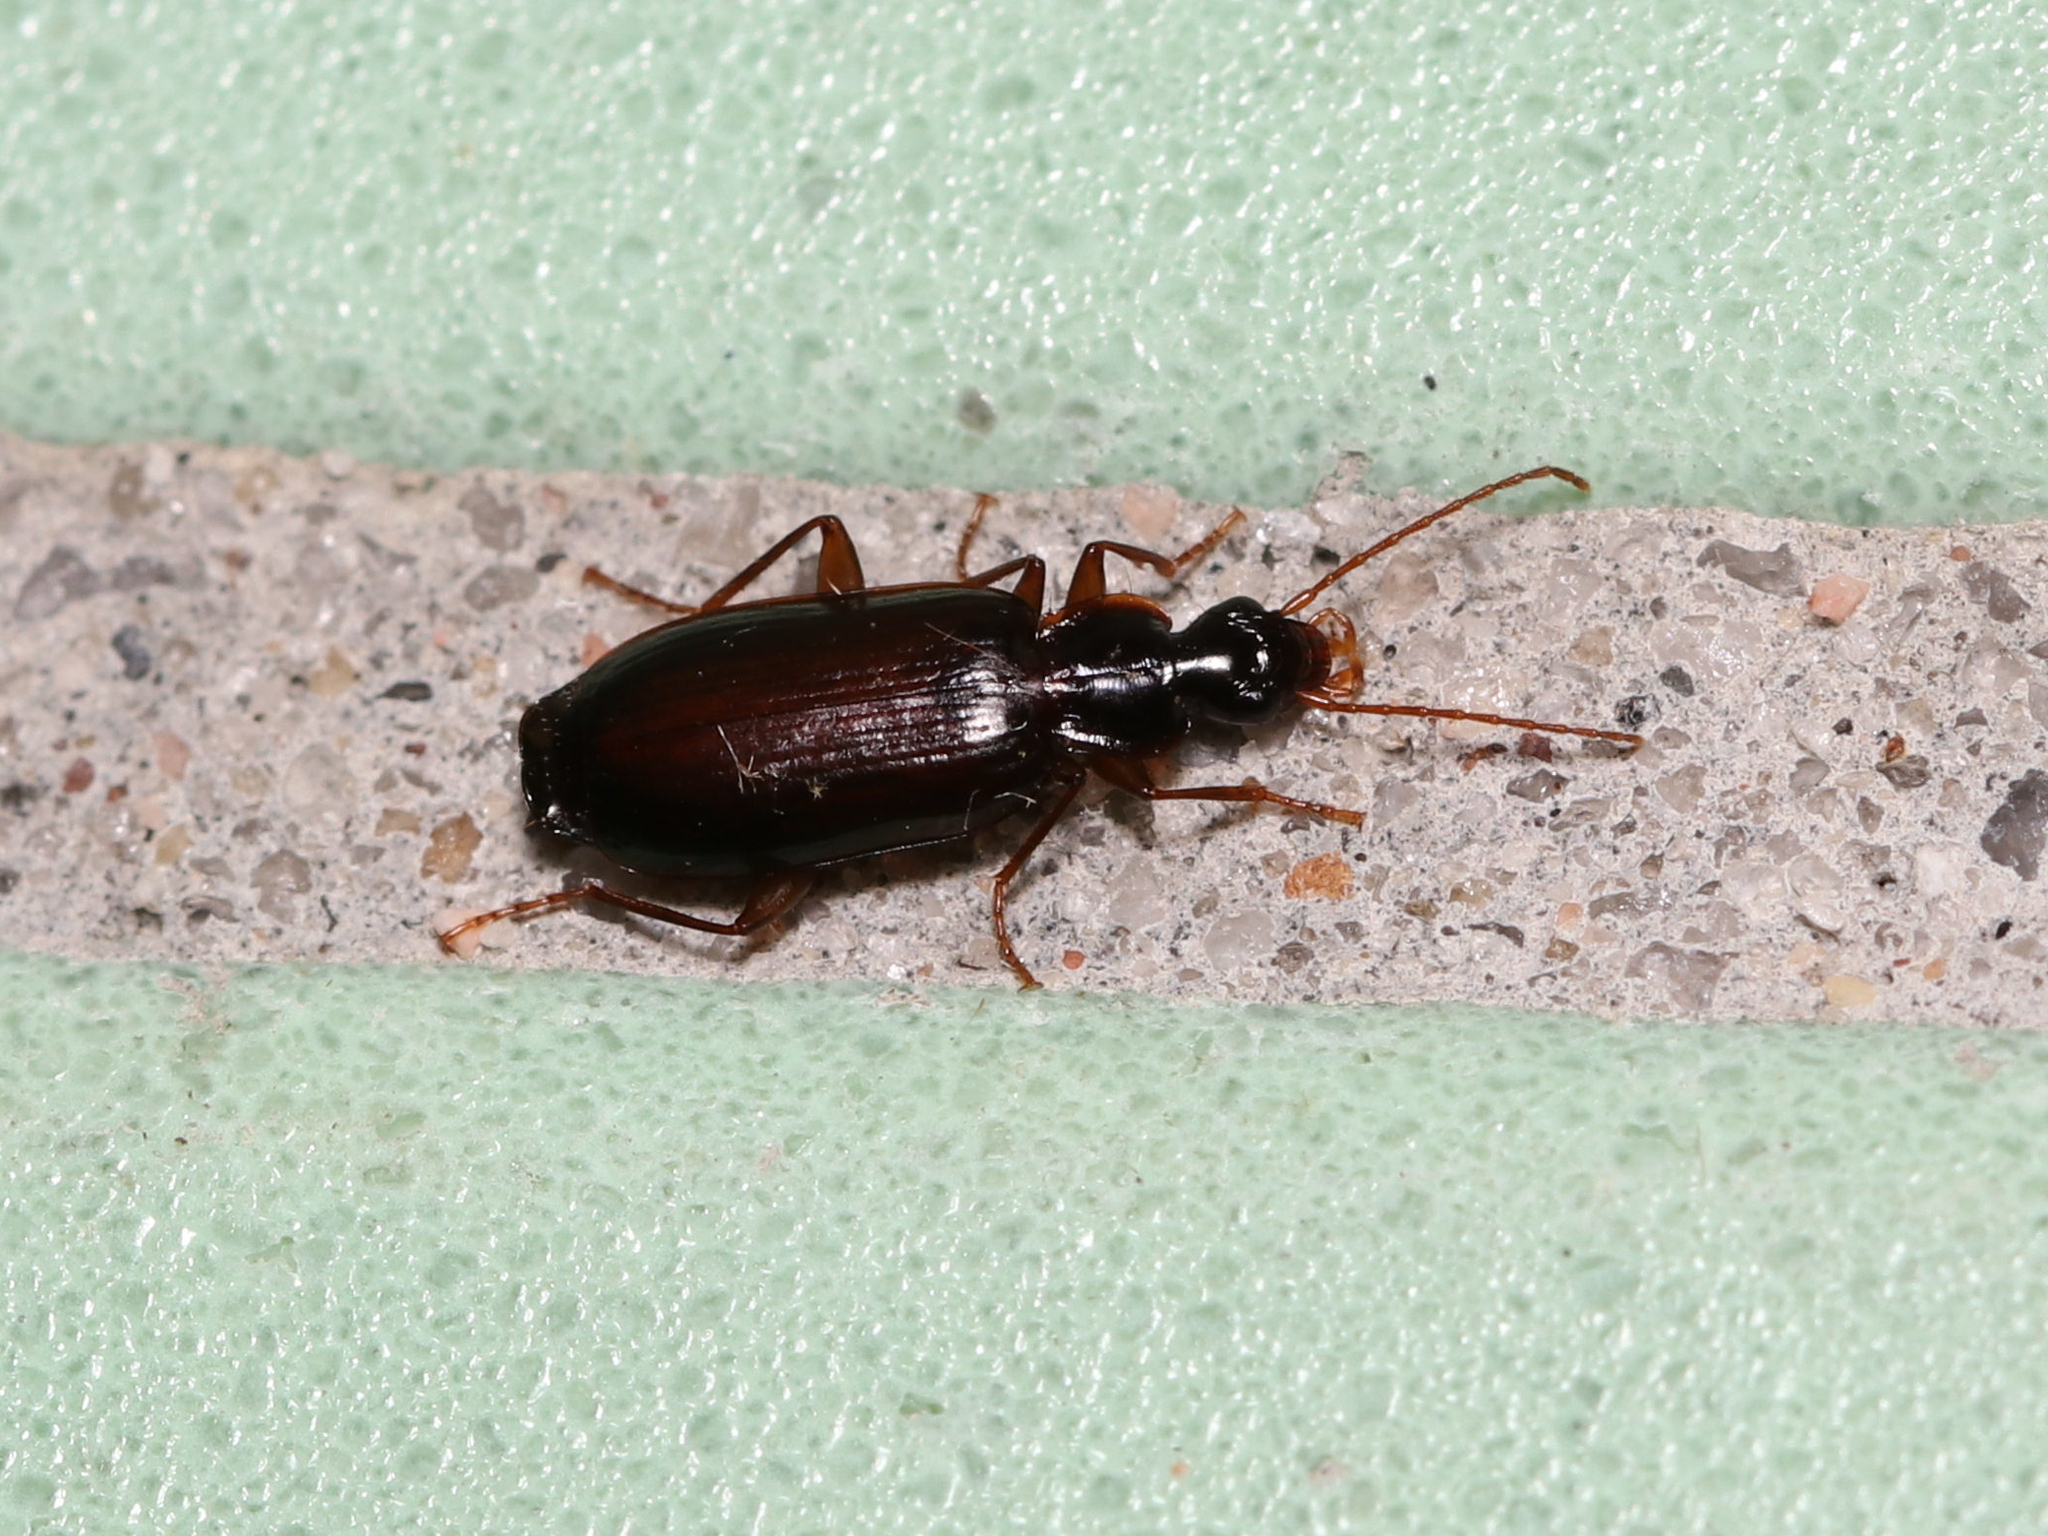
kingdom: Animalia
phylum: Arthropoda
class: Insecta
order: Coleoptera
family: Carabidae
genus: Dromius
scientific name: Dromius piceus
